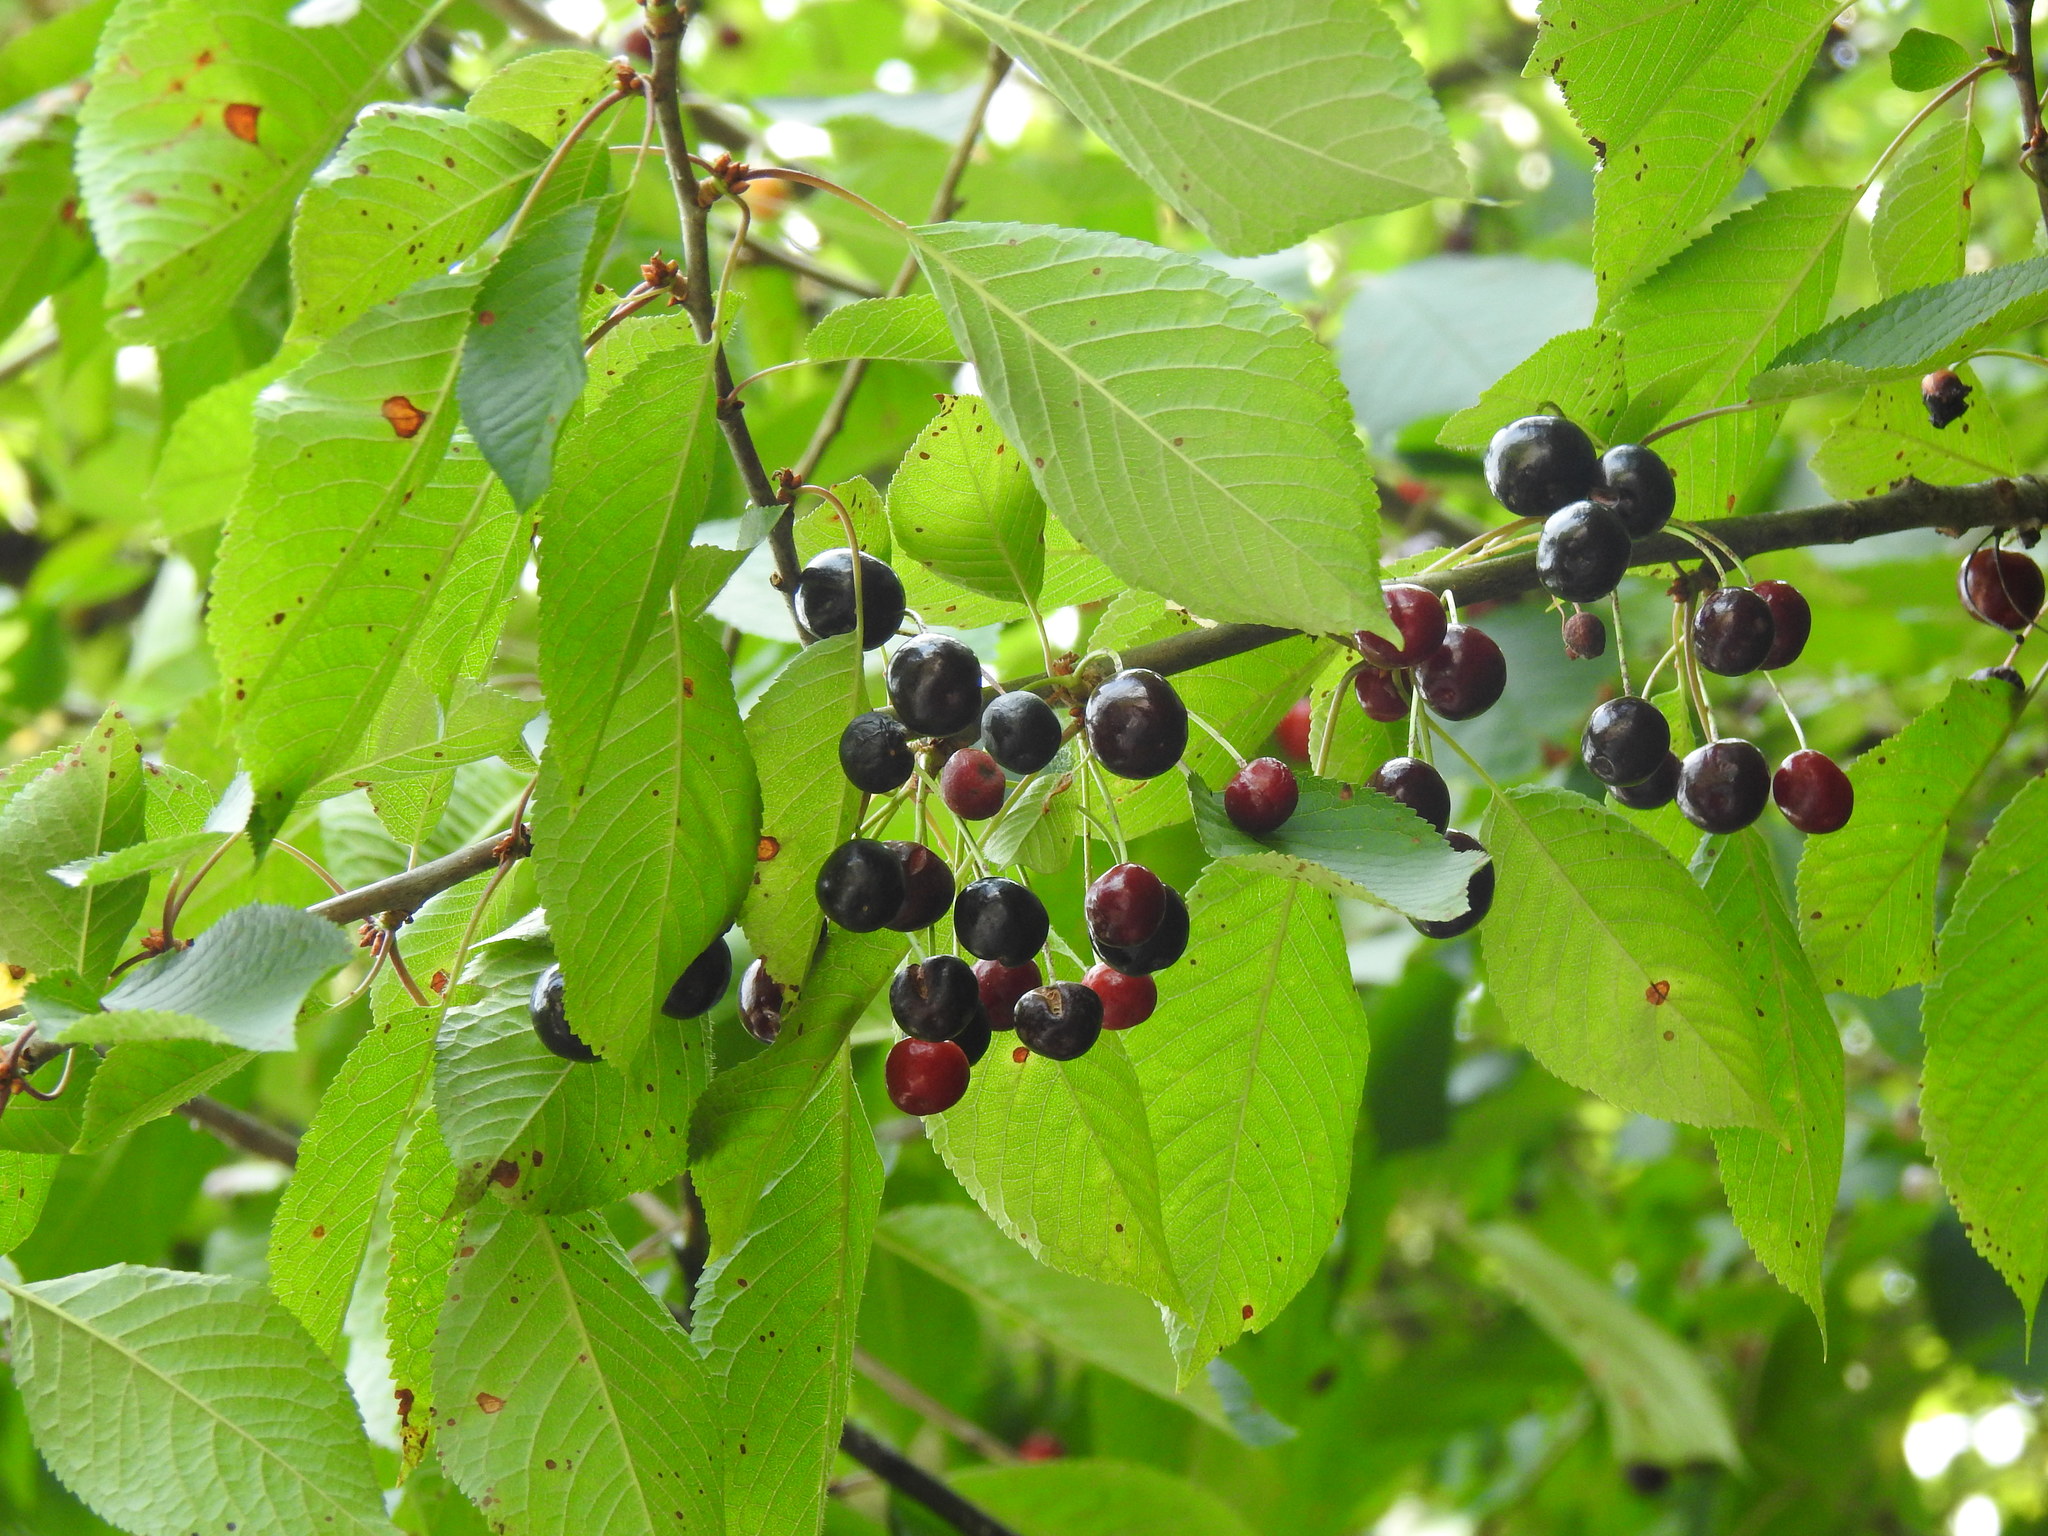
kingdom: Plantae
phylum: Tracheophyta
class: Magnoliopsida
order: Rosales
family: Rosaceae
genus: Prunus
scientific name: Prunus avium
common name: Sweet cherry
